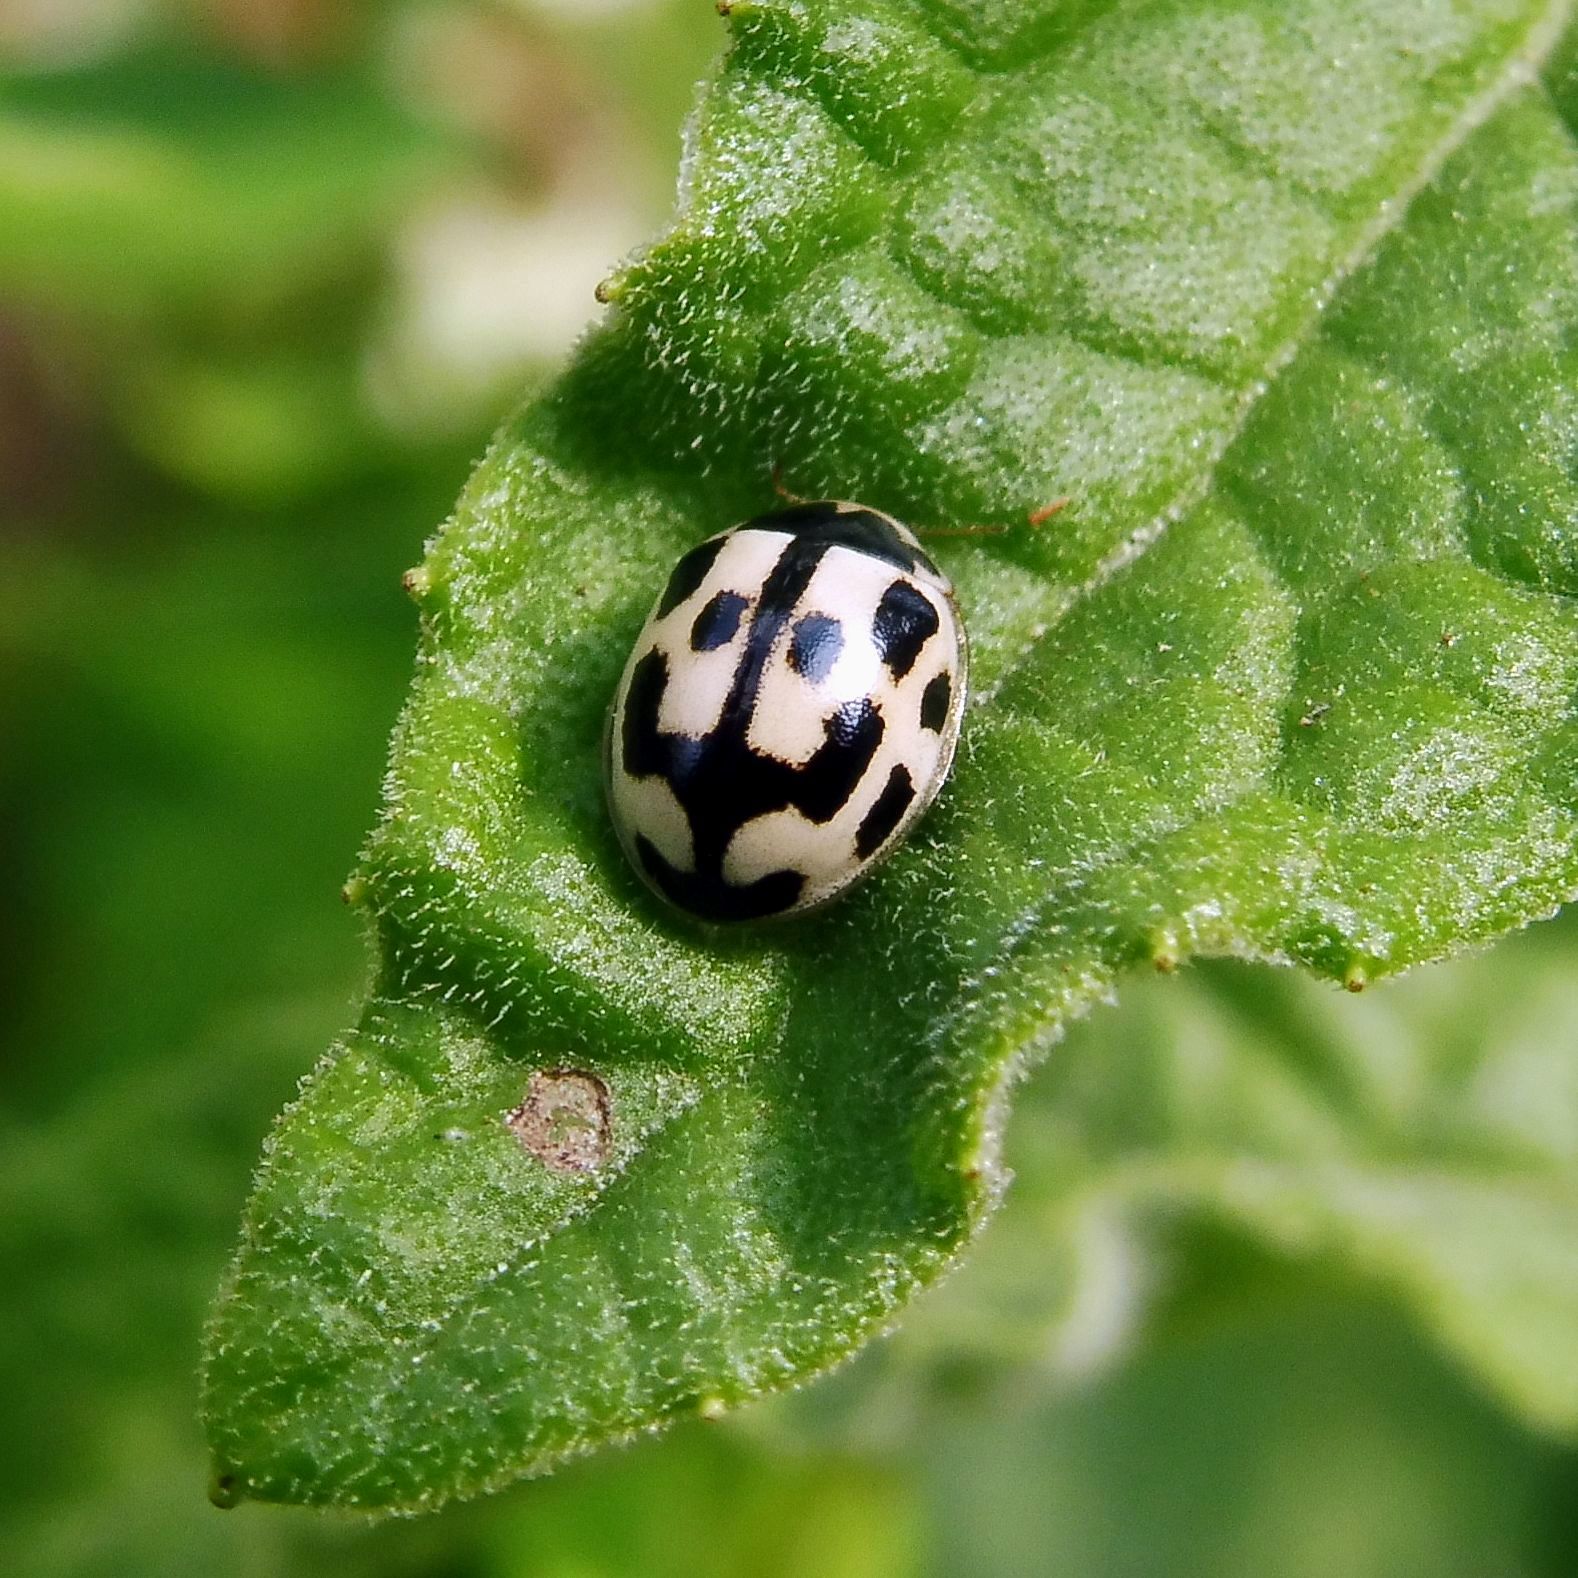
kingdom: Animalia
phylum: Arthropoda
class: Insecta
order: Coleoptera
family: Coccinellidae
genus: Propylaea
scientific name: Propylaea quatuordecimpunctata
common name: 14-spotted ladybird beetle
